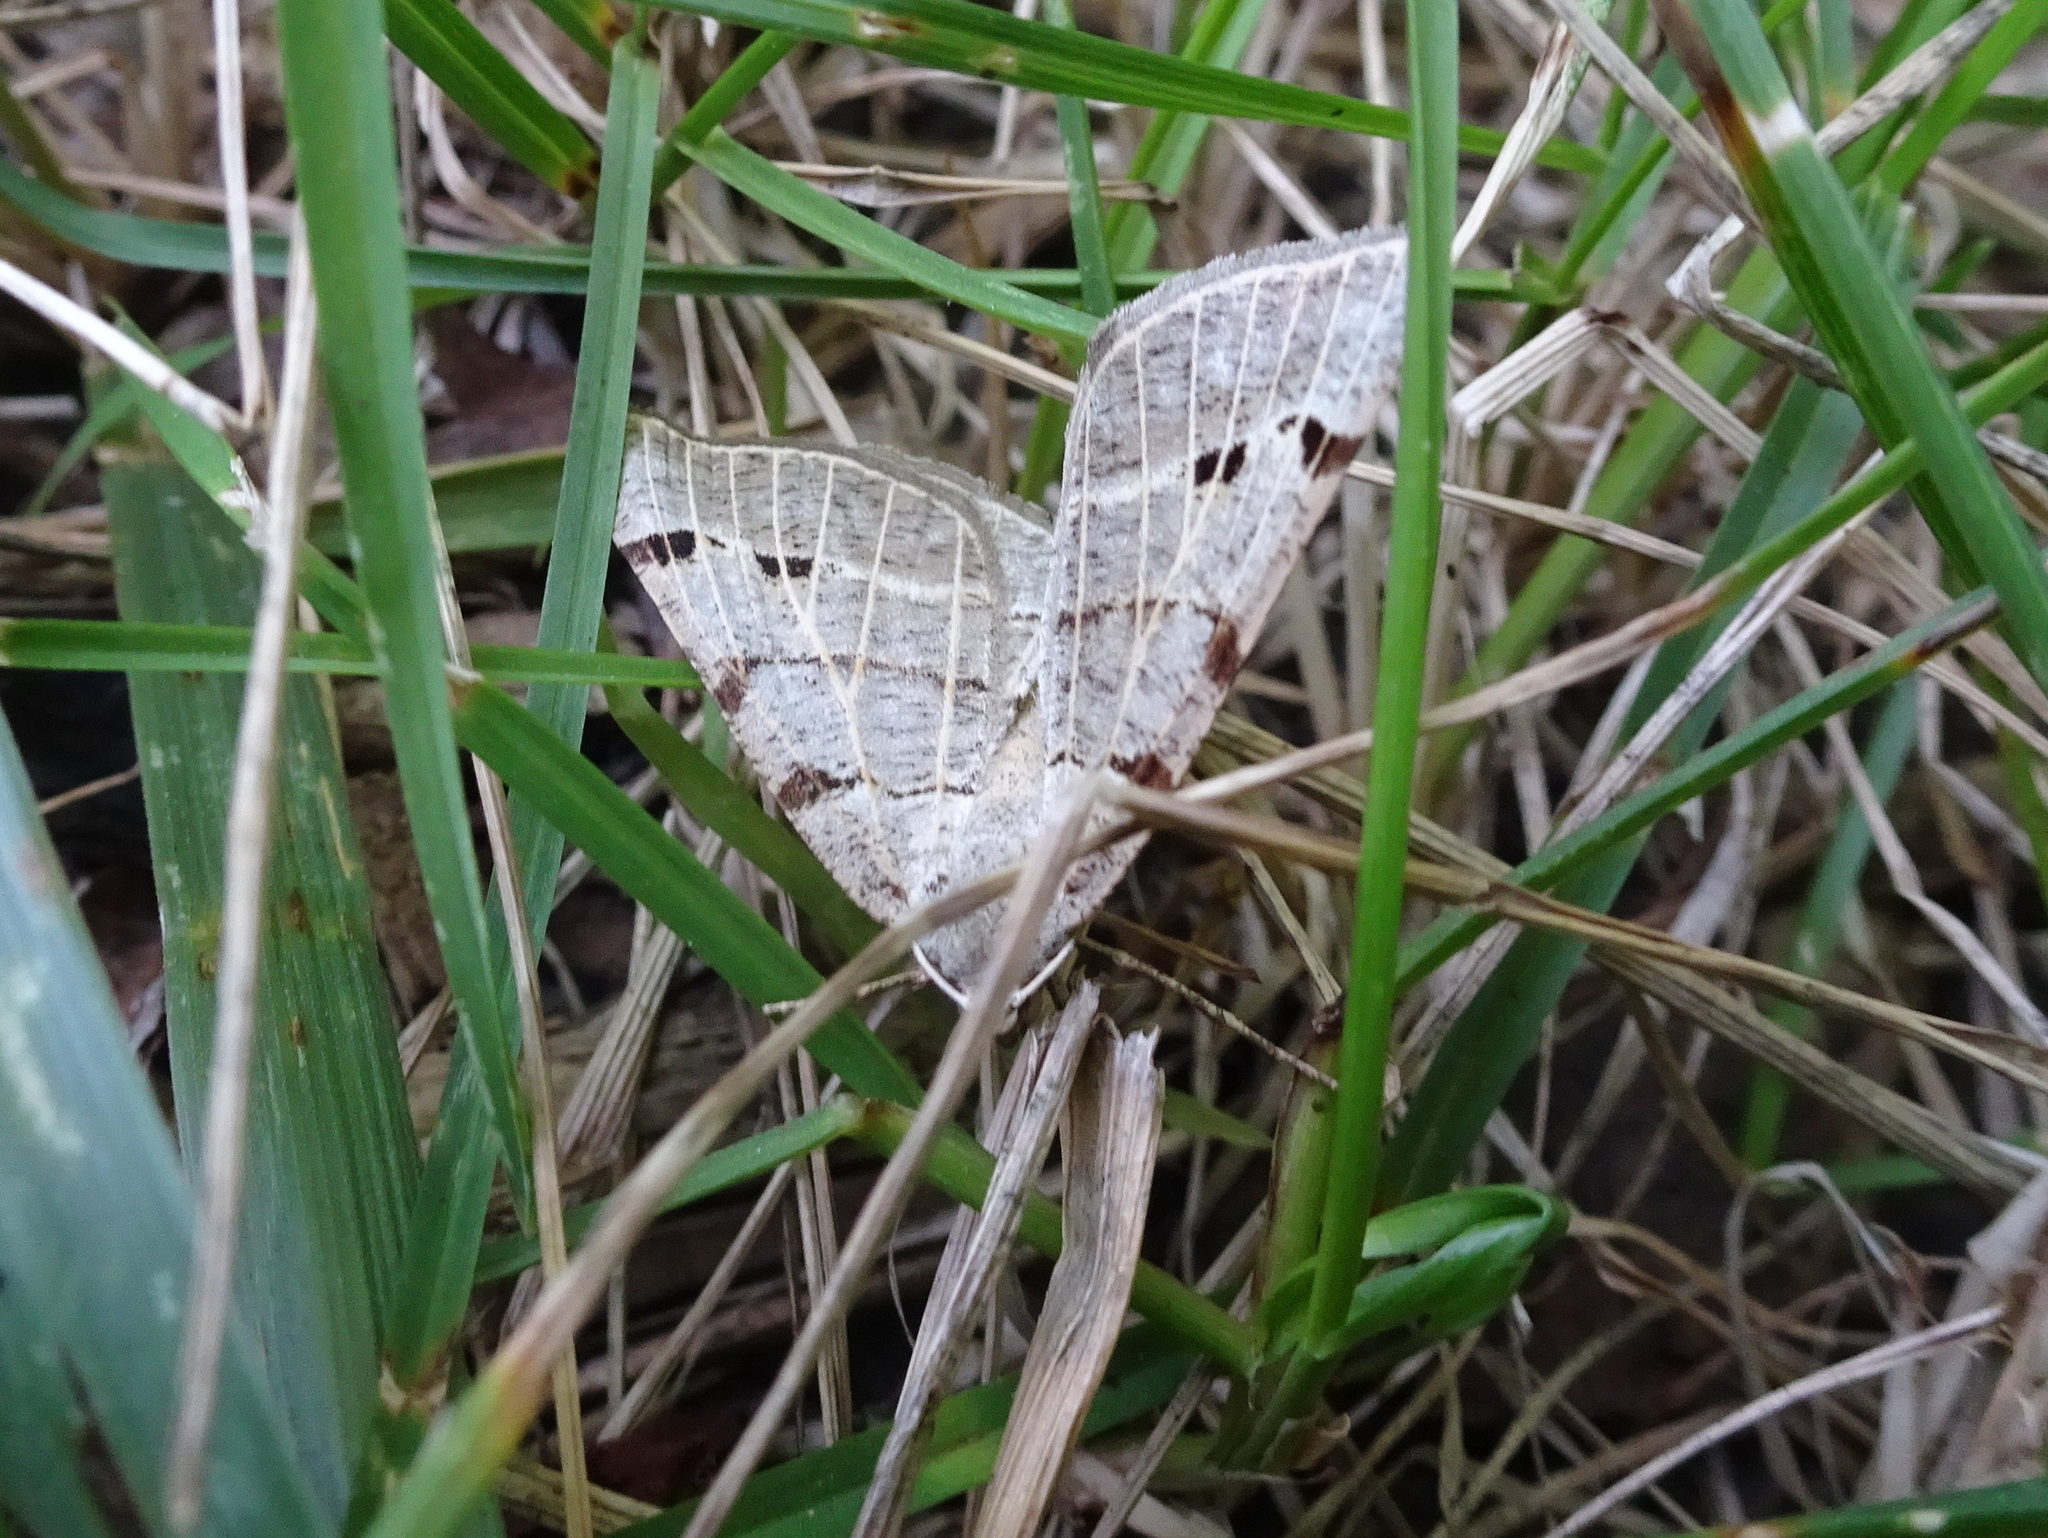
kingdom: Animalia
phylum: Arthropoda
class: Insecta
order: Lepidoptera
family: Geometridae
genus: Isturgia
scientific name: Isturgia dislocaria
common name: Pale-viened enconista
